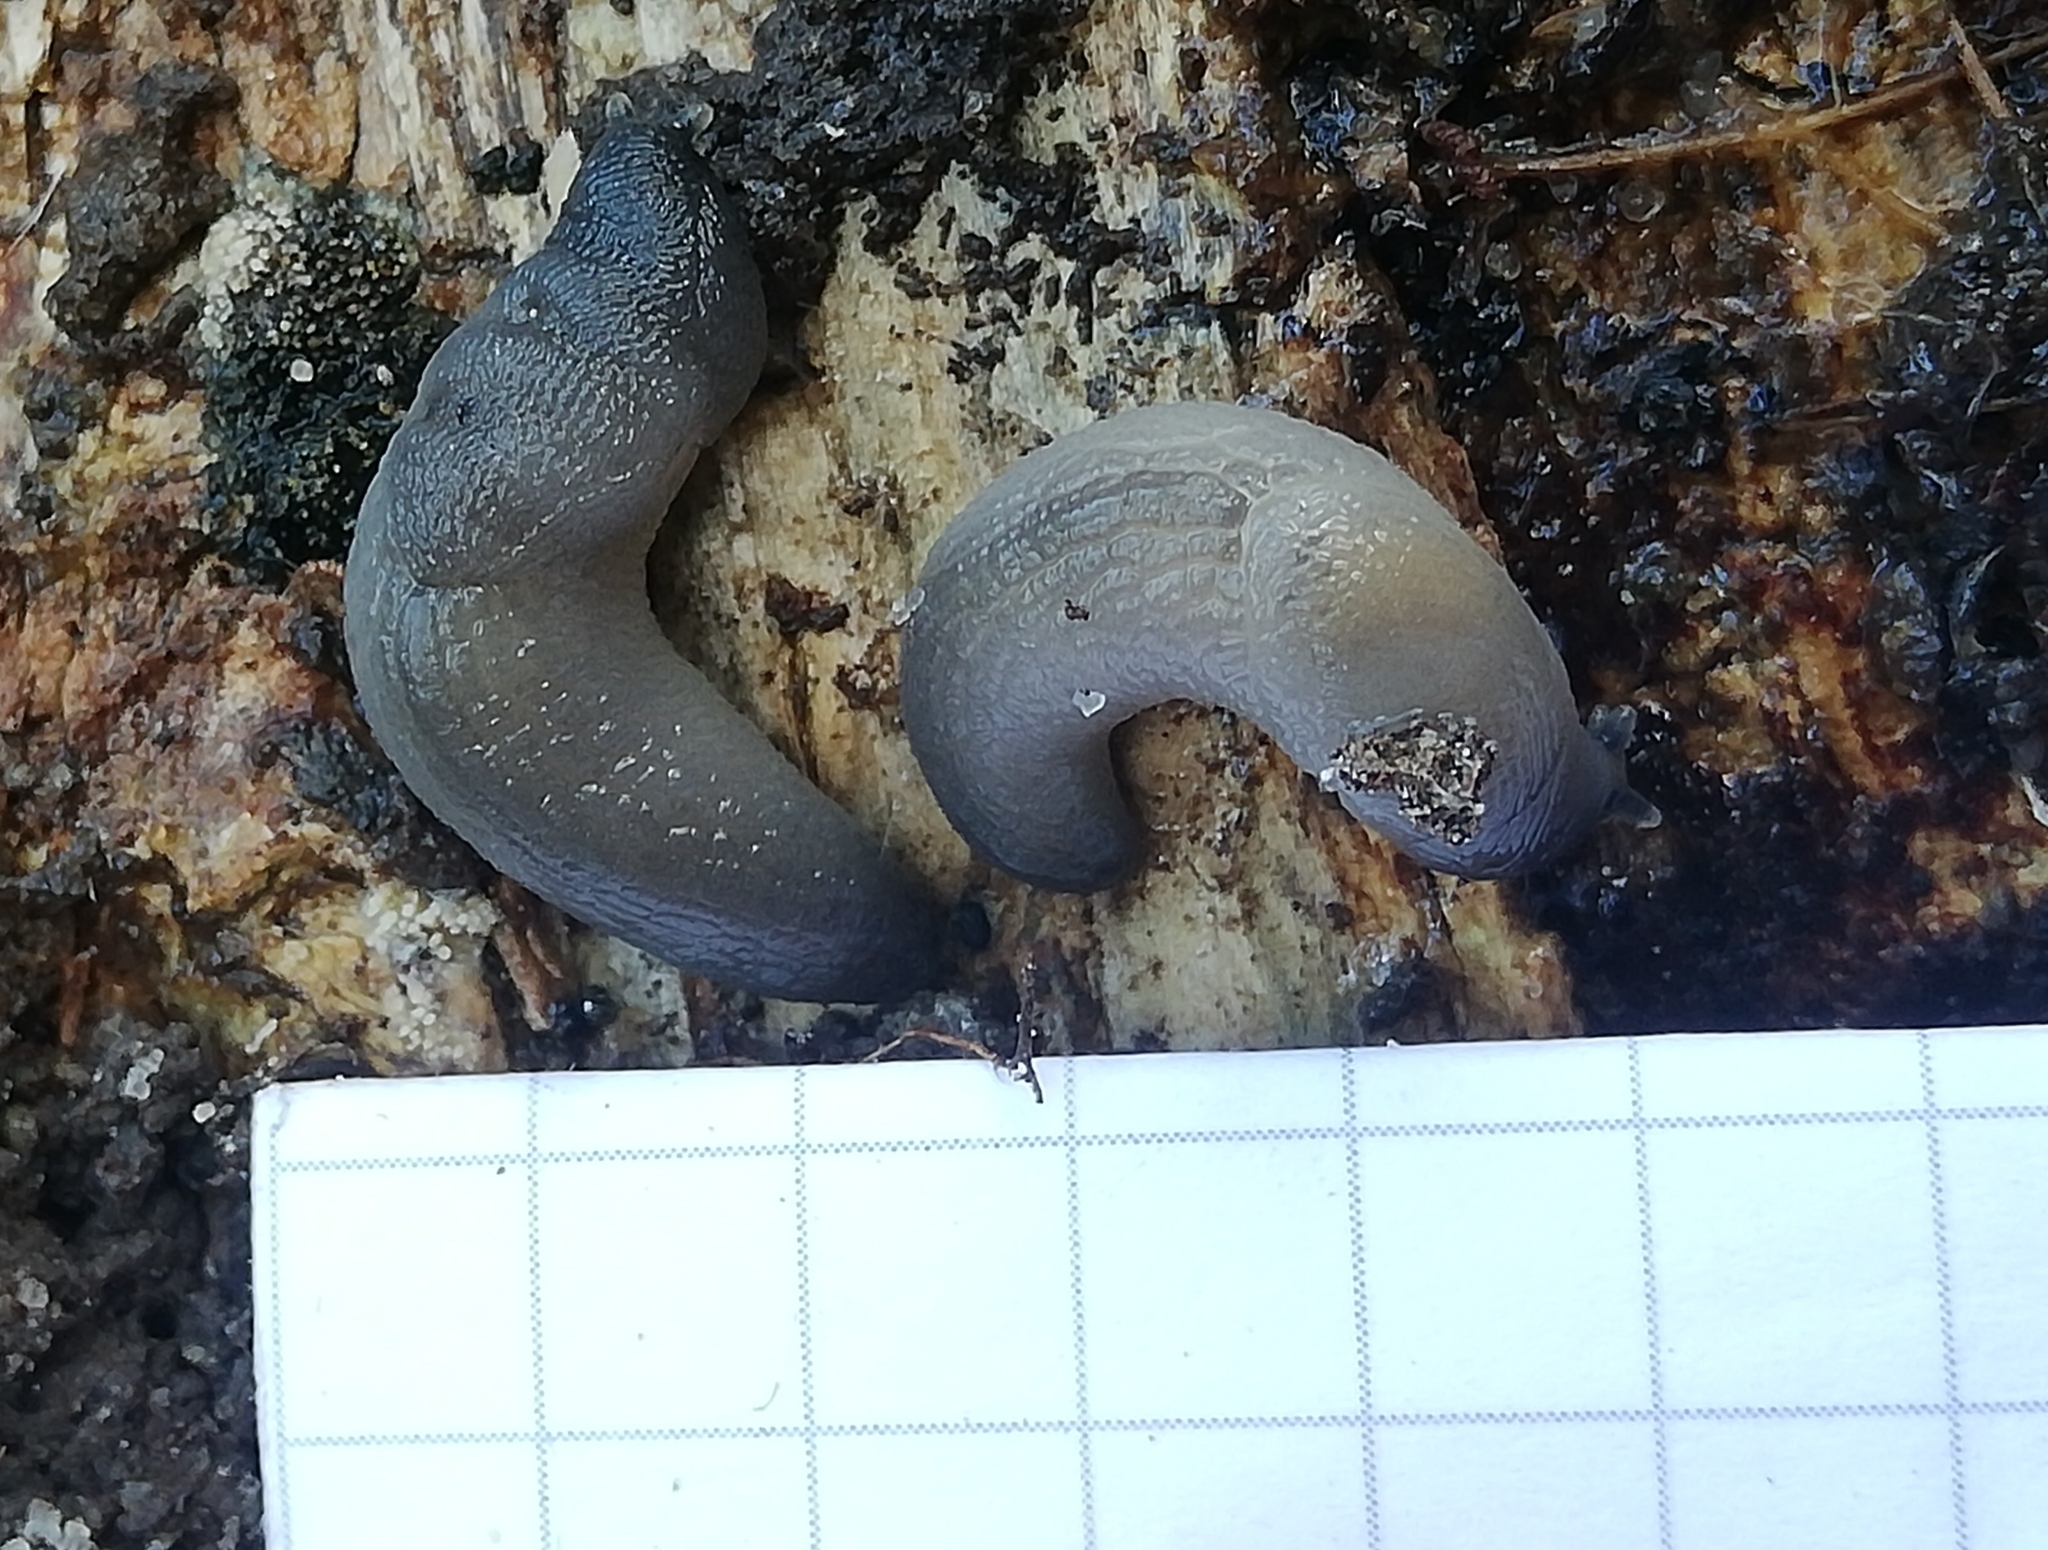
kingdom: Animalia
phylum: Mollusca
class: Gastropoda
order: Stylommatophora
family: Boettgerillidae
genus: Boettgerilla
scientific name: Boettgerilla pallens
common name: Worm slug
